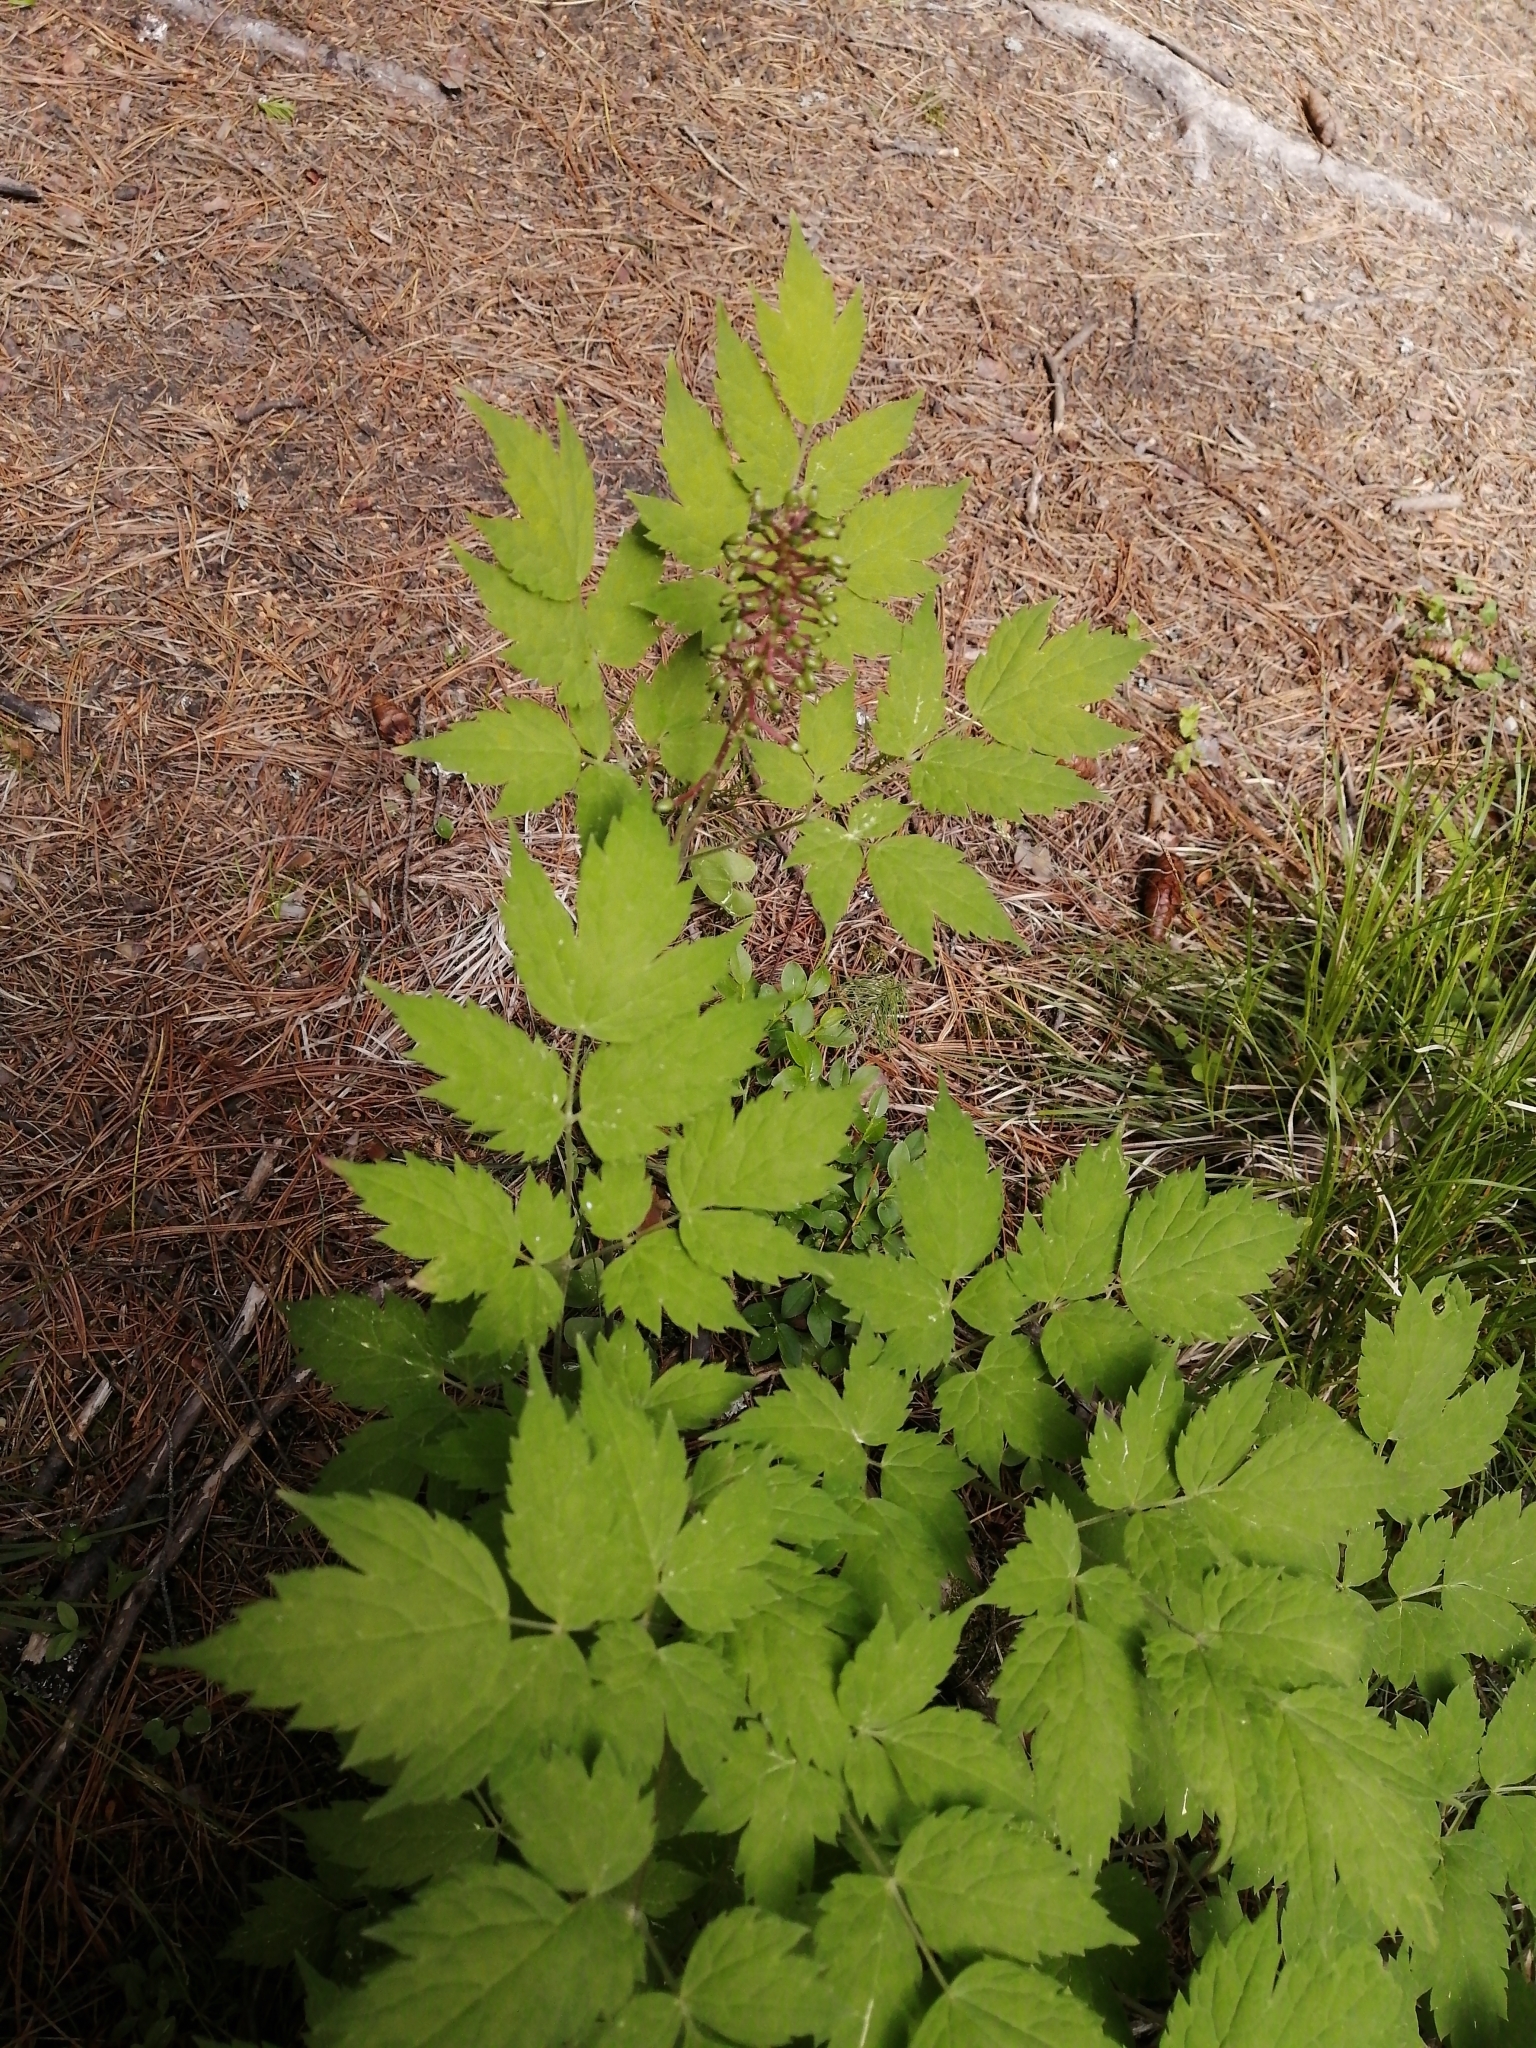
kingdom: Plantae
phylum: Tracheophyta
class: Magnoliopsida
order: Ranunculales
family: Ranunculaceae
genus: Actaea
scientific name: Actaea erythrocarpa
